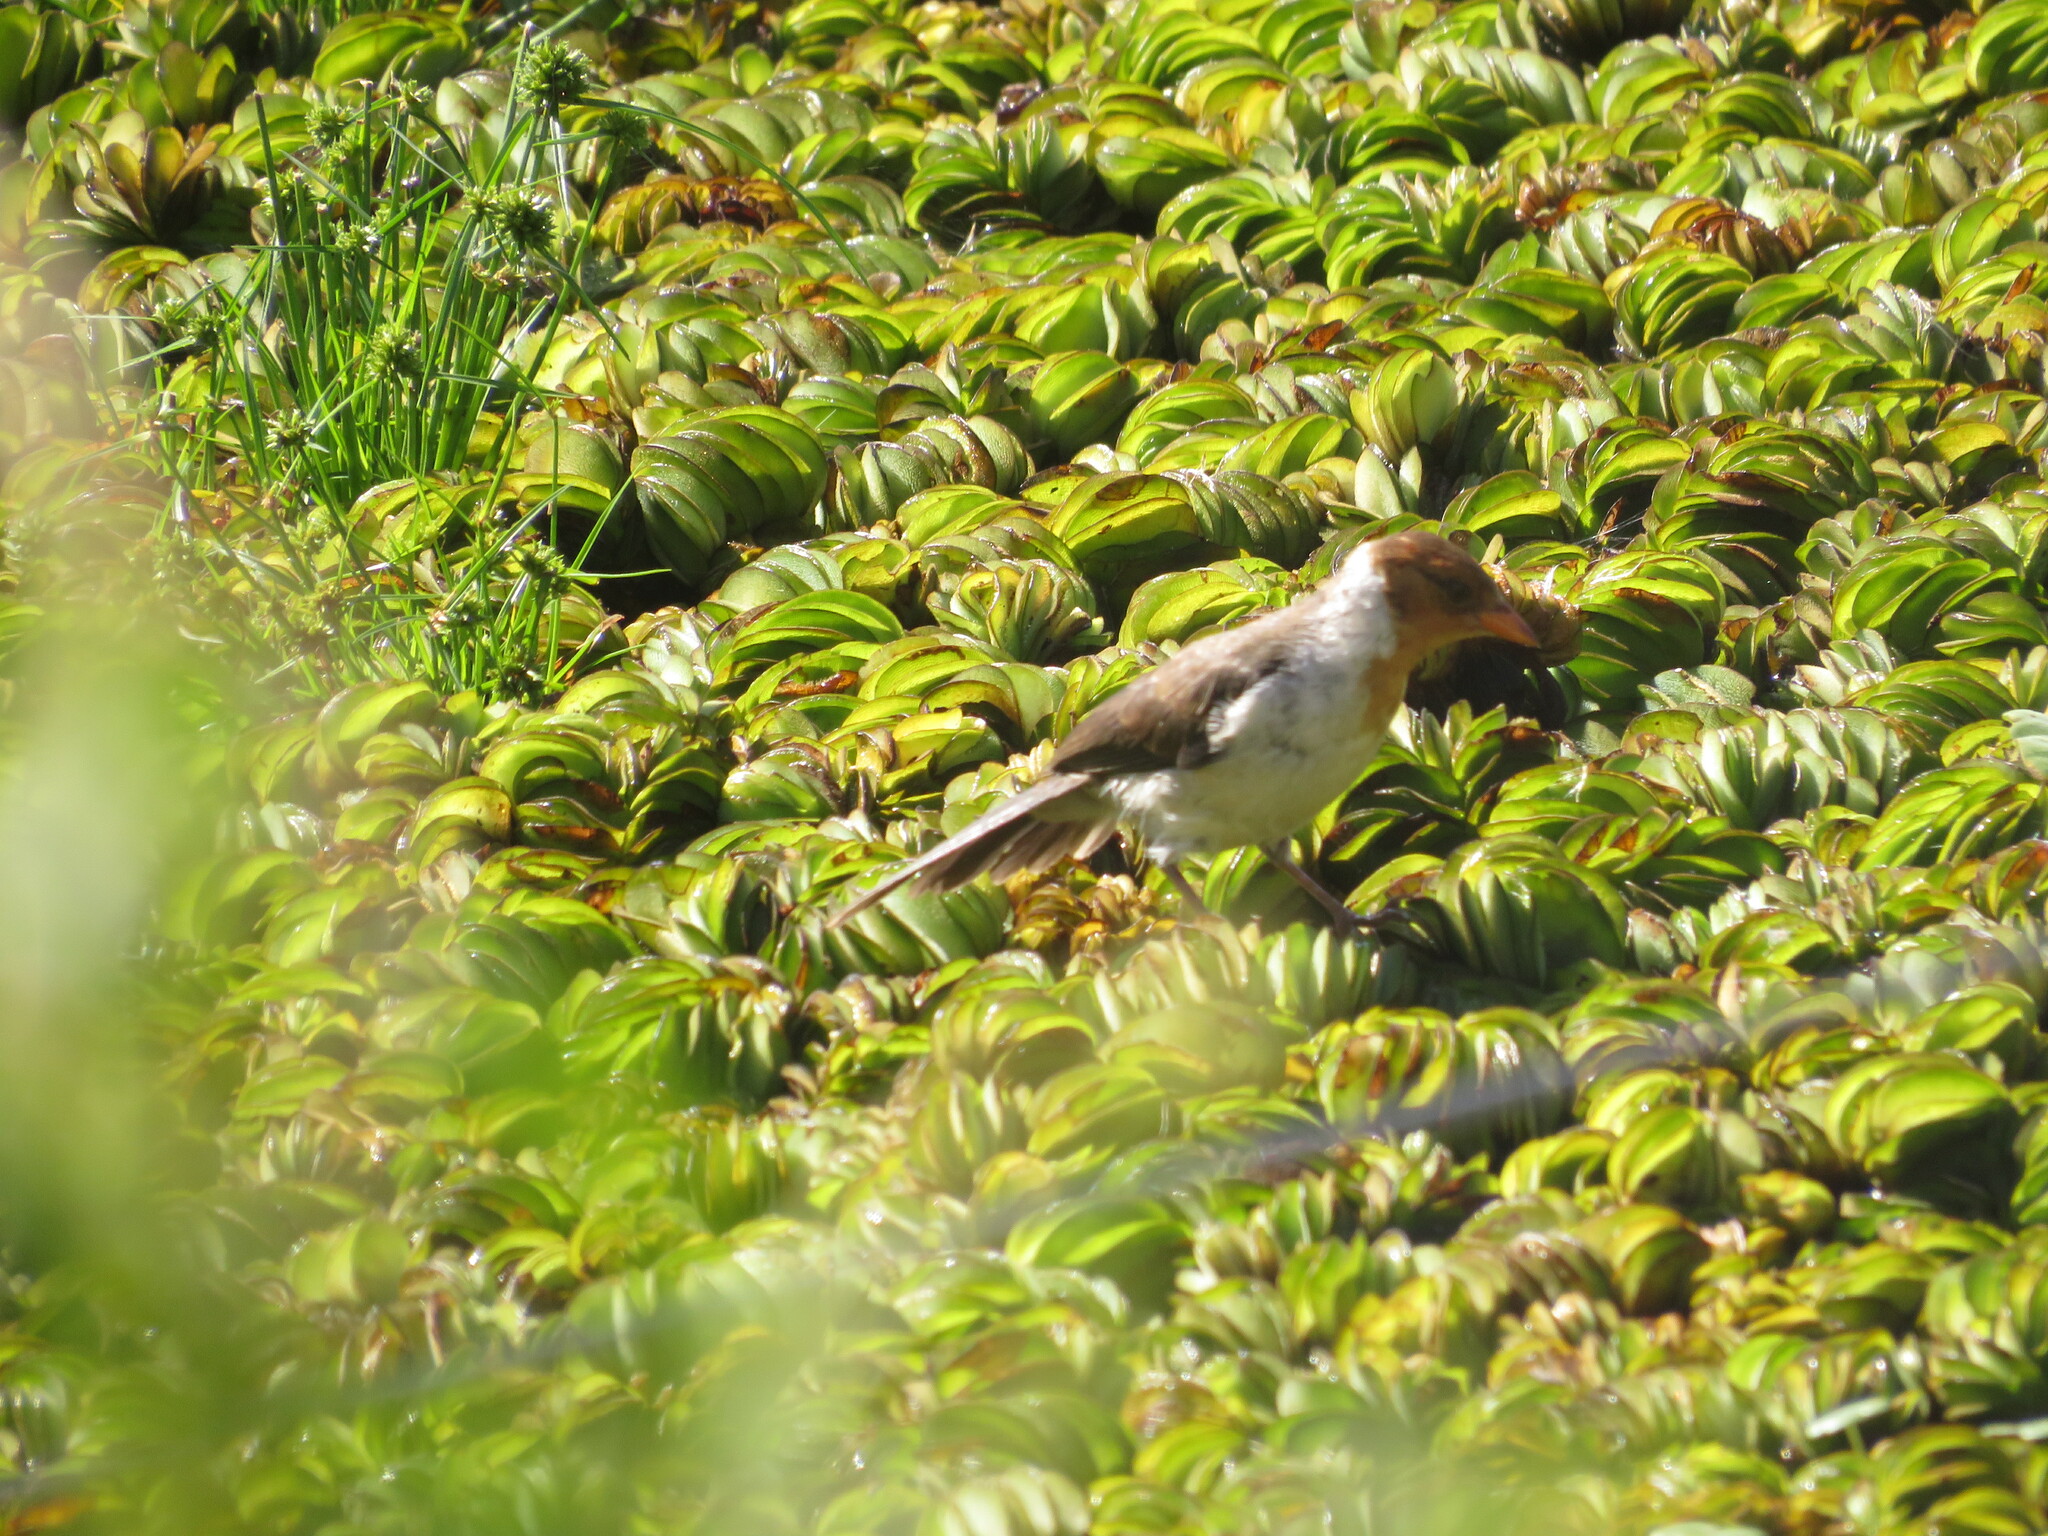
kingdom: Animalia
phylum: Chordata
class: Aves
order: Passeriformes
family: Thraupidae
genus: Paroaria
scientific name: Paroaria capitata
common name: Yellow-billed cardinal
